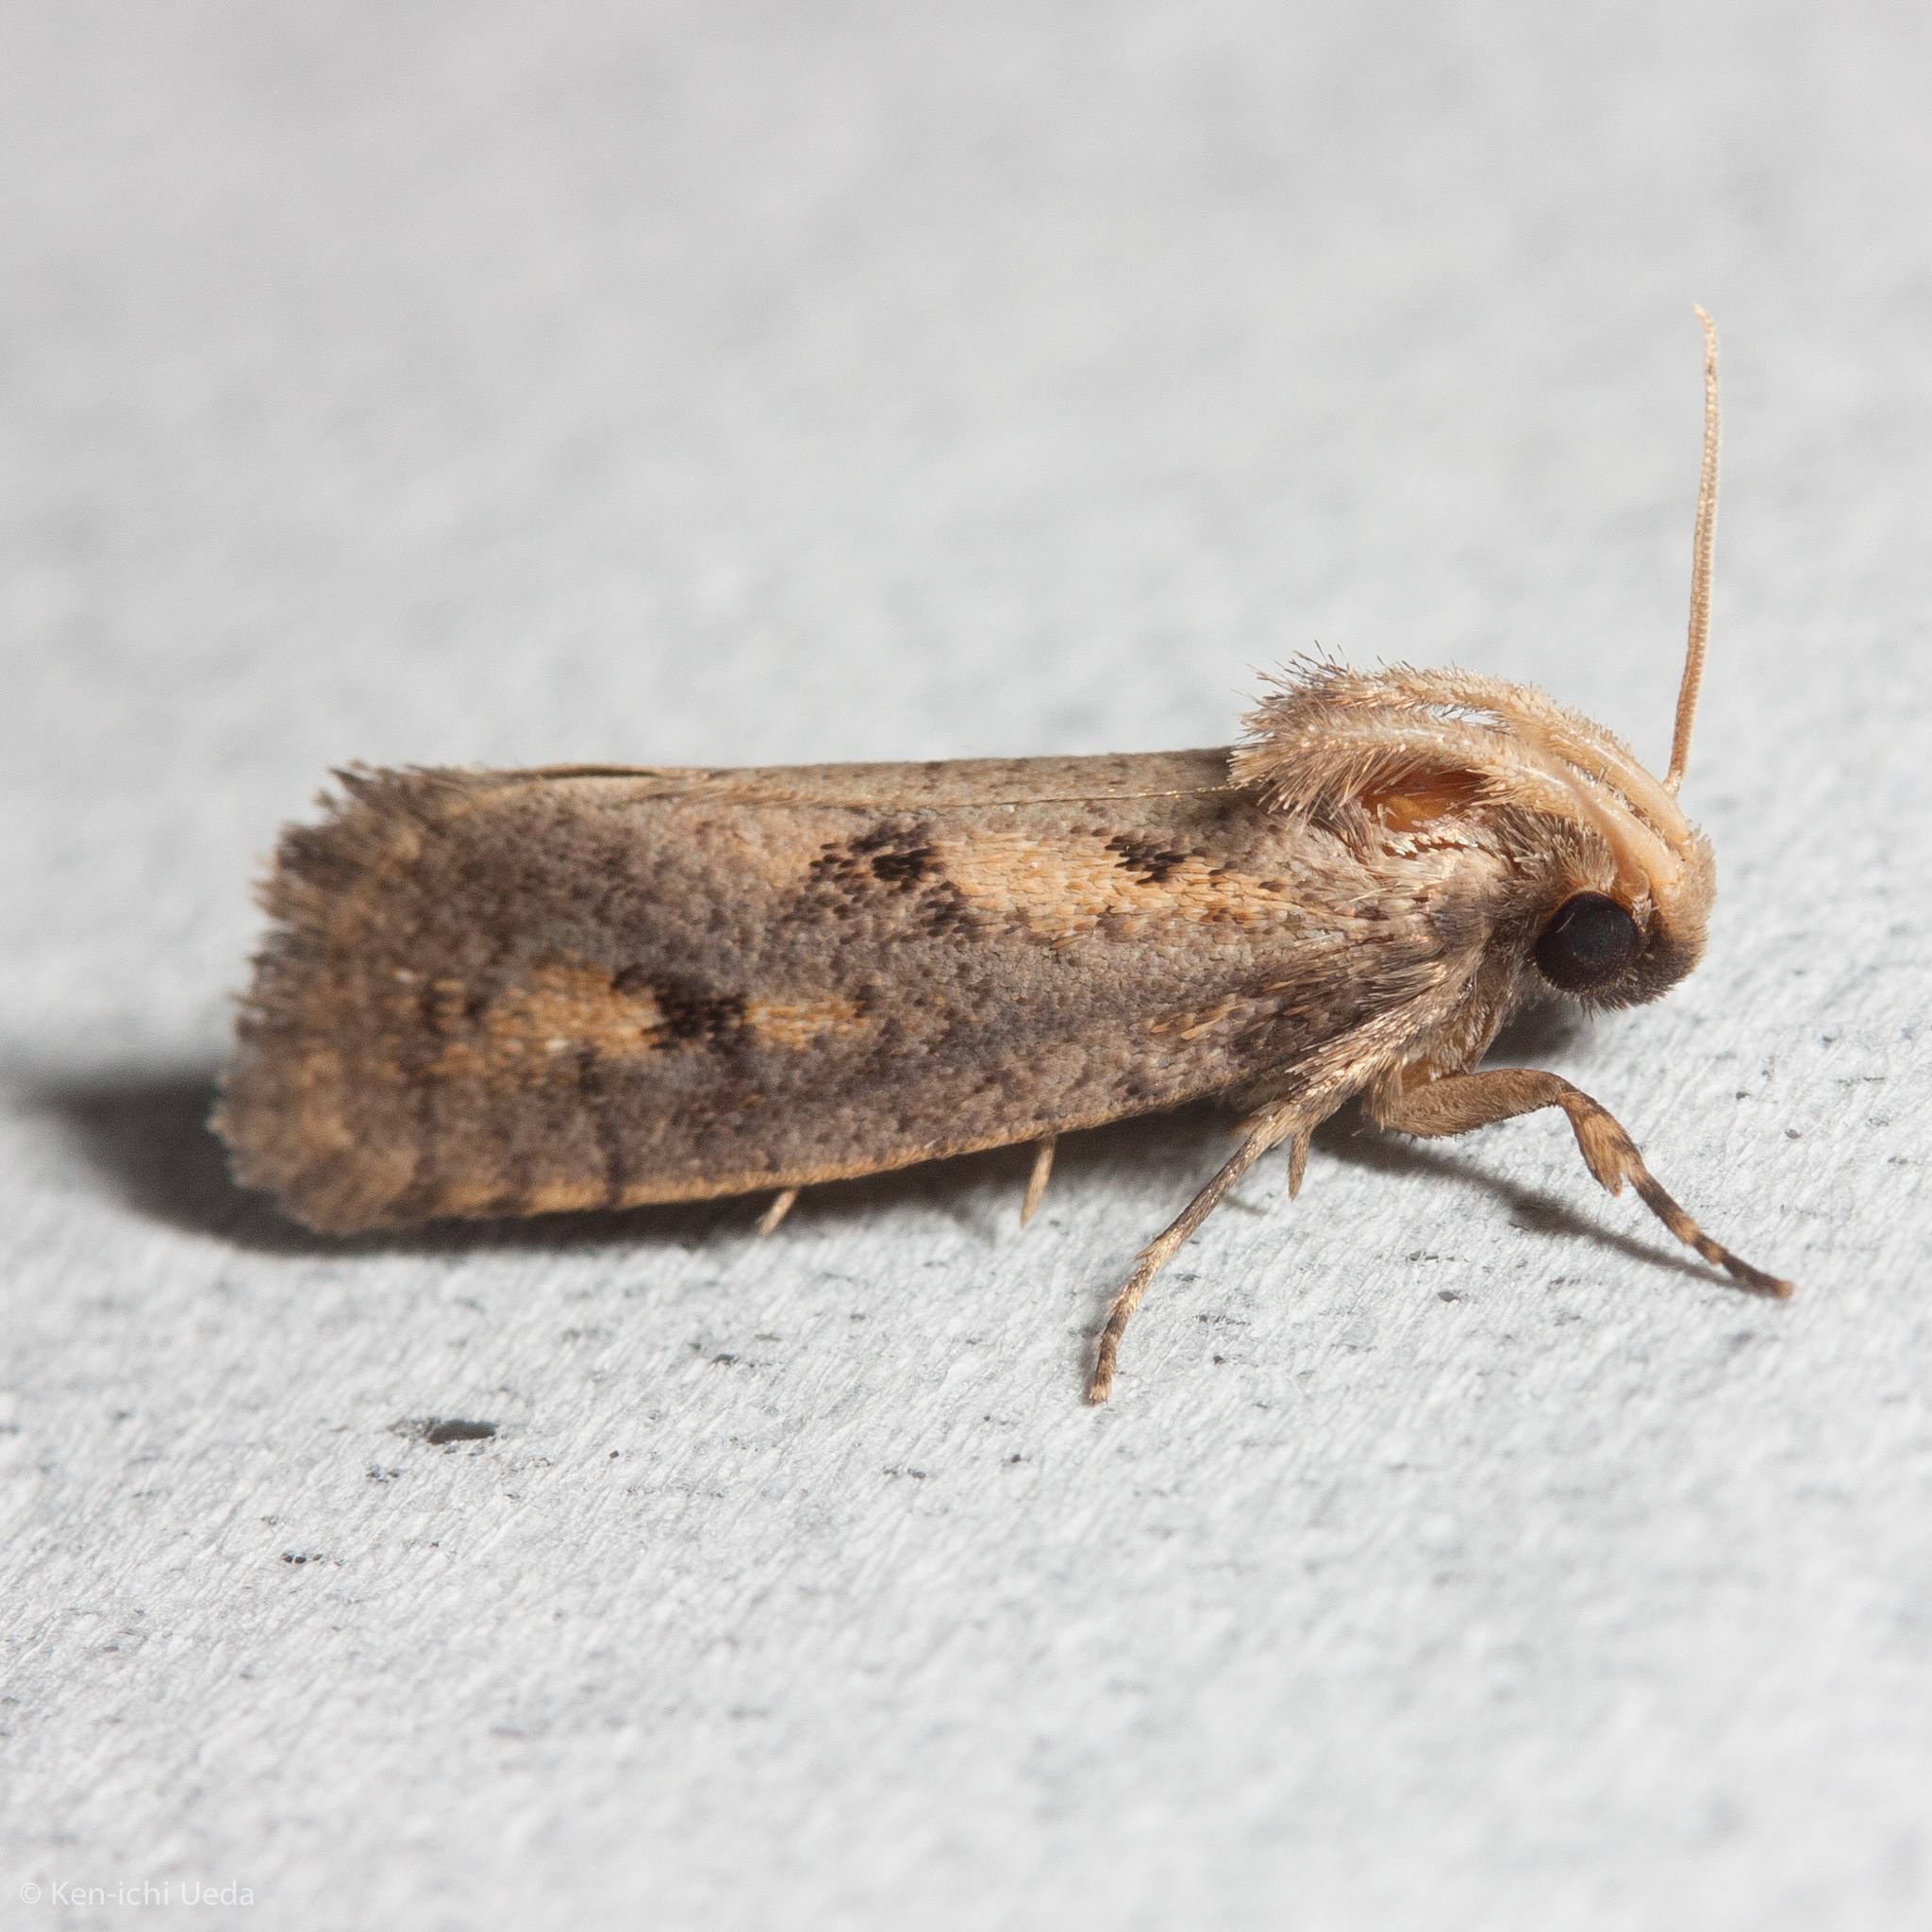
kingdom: Animalia
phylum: Arthropoda
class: Insecta
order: Lepidoptera
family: Tineidae
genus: Acrolophus
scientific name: Acrolophus popeanella
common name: Clemens' grass tubeworm moth
